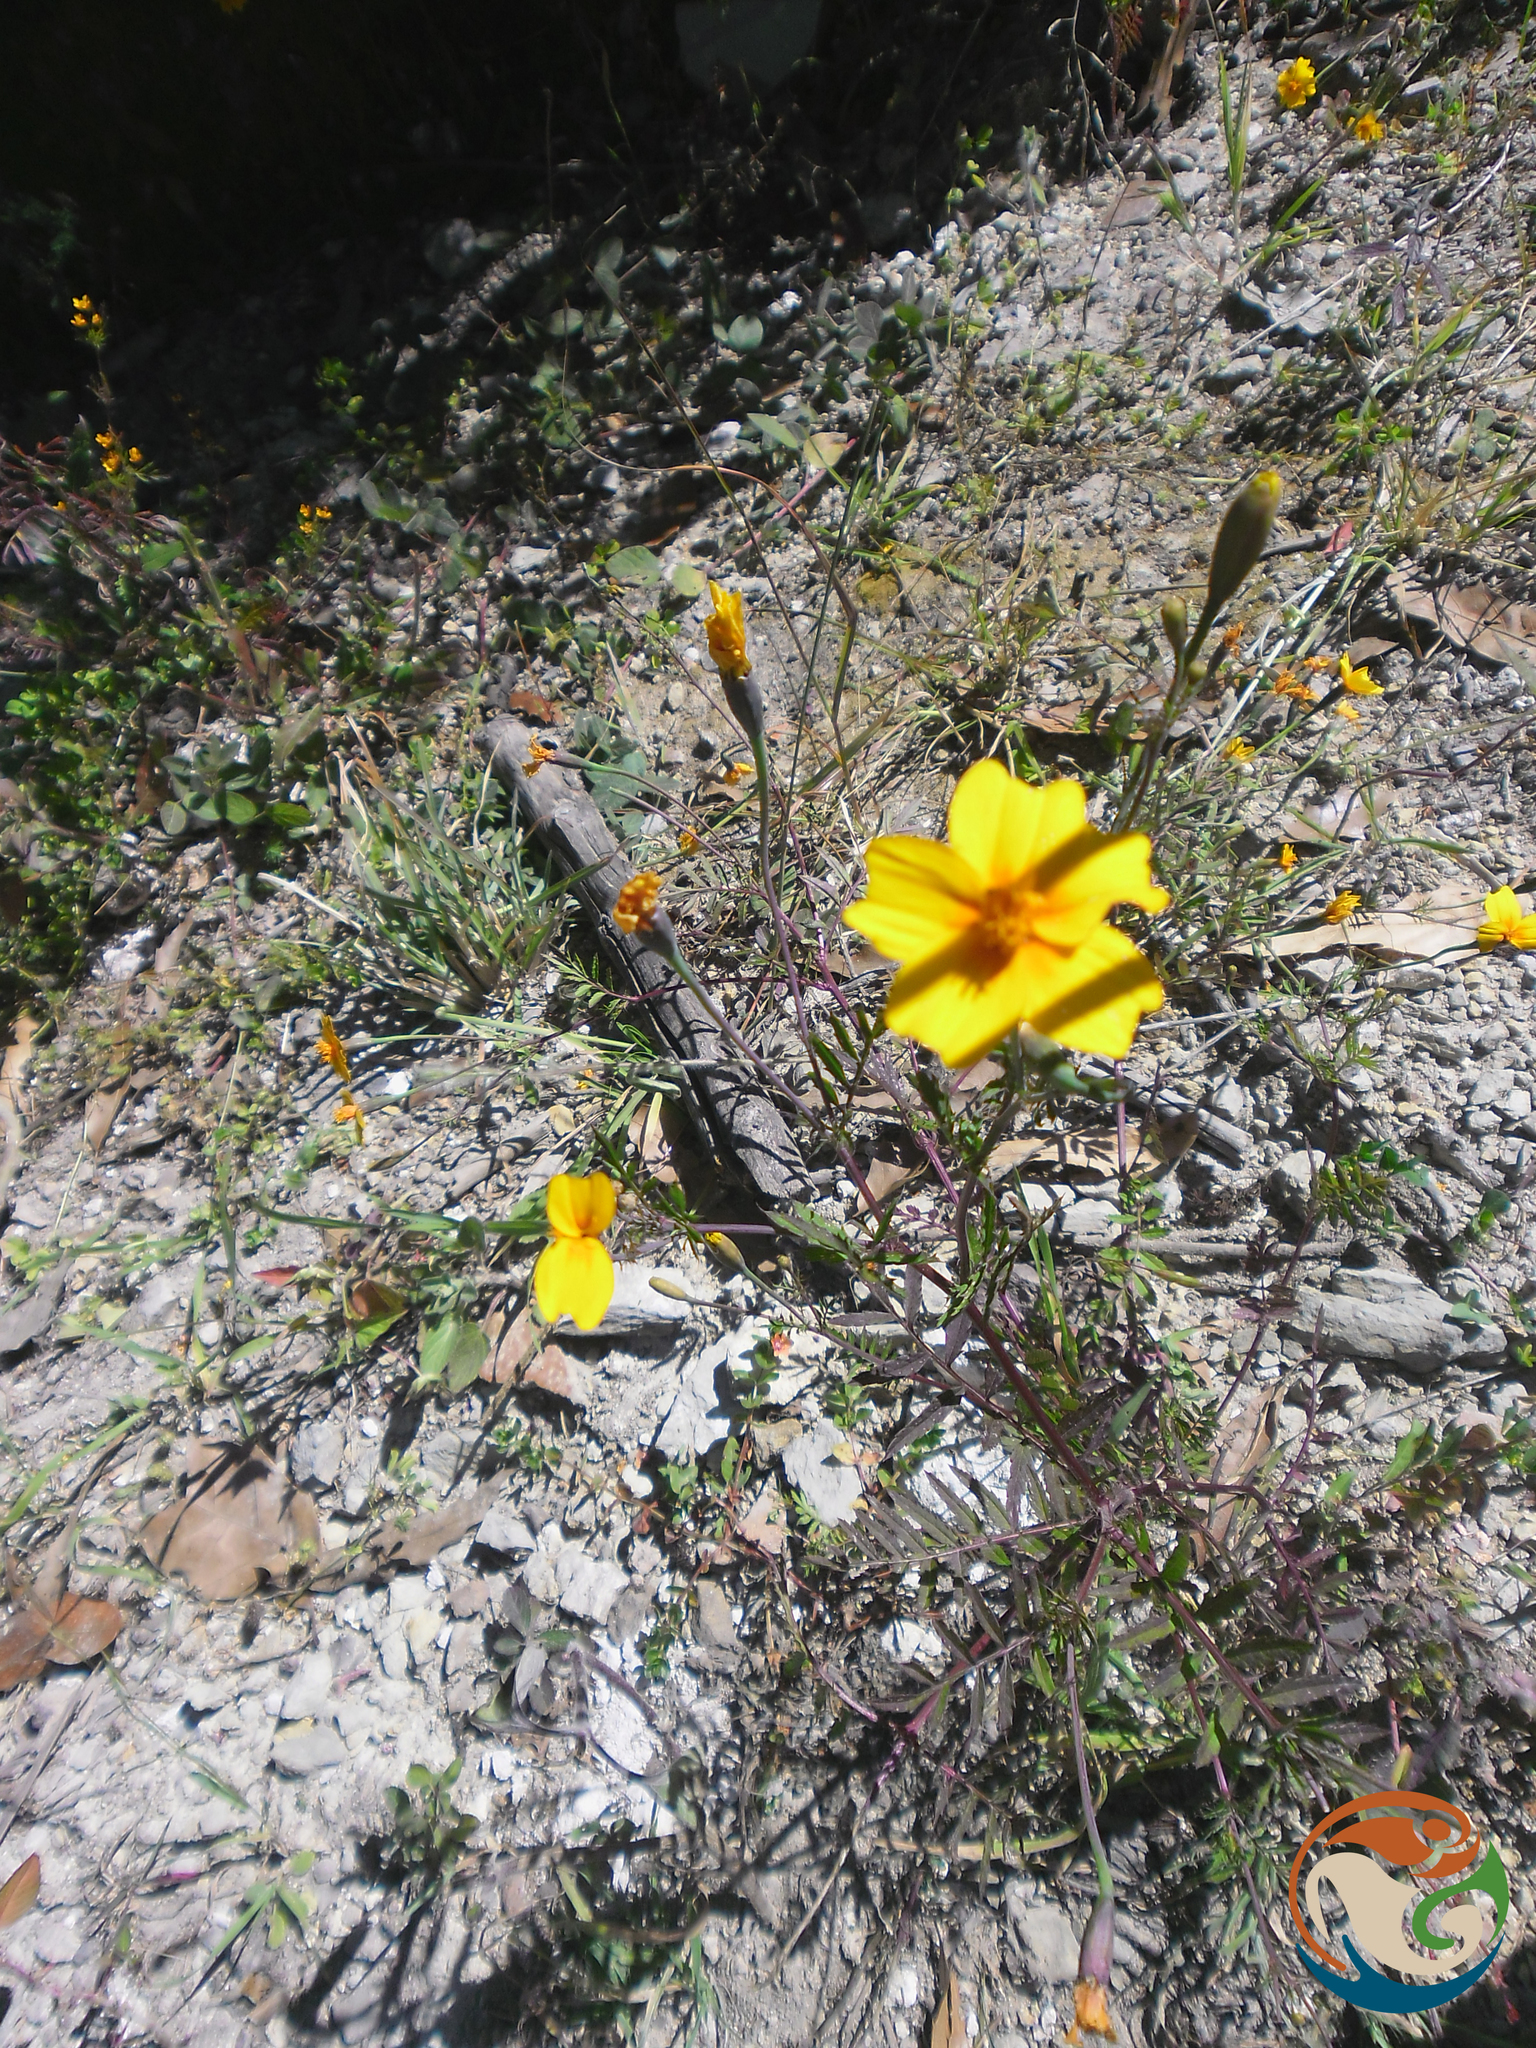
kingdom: Plantae
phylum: Tracheophyta
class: Magnoliopsida
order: Asterales
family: Asteraceae
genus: Tagetes
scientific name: Tagetes tenuifolia
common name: Signet marigold
